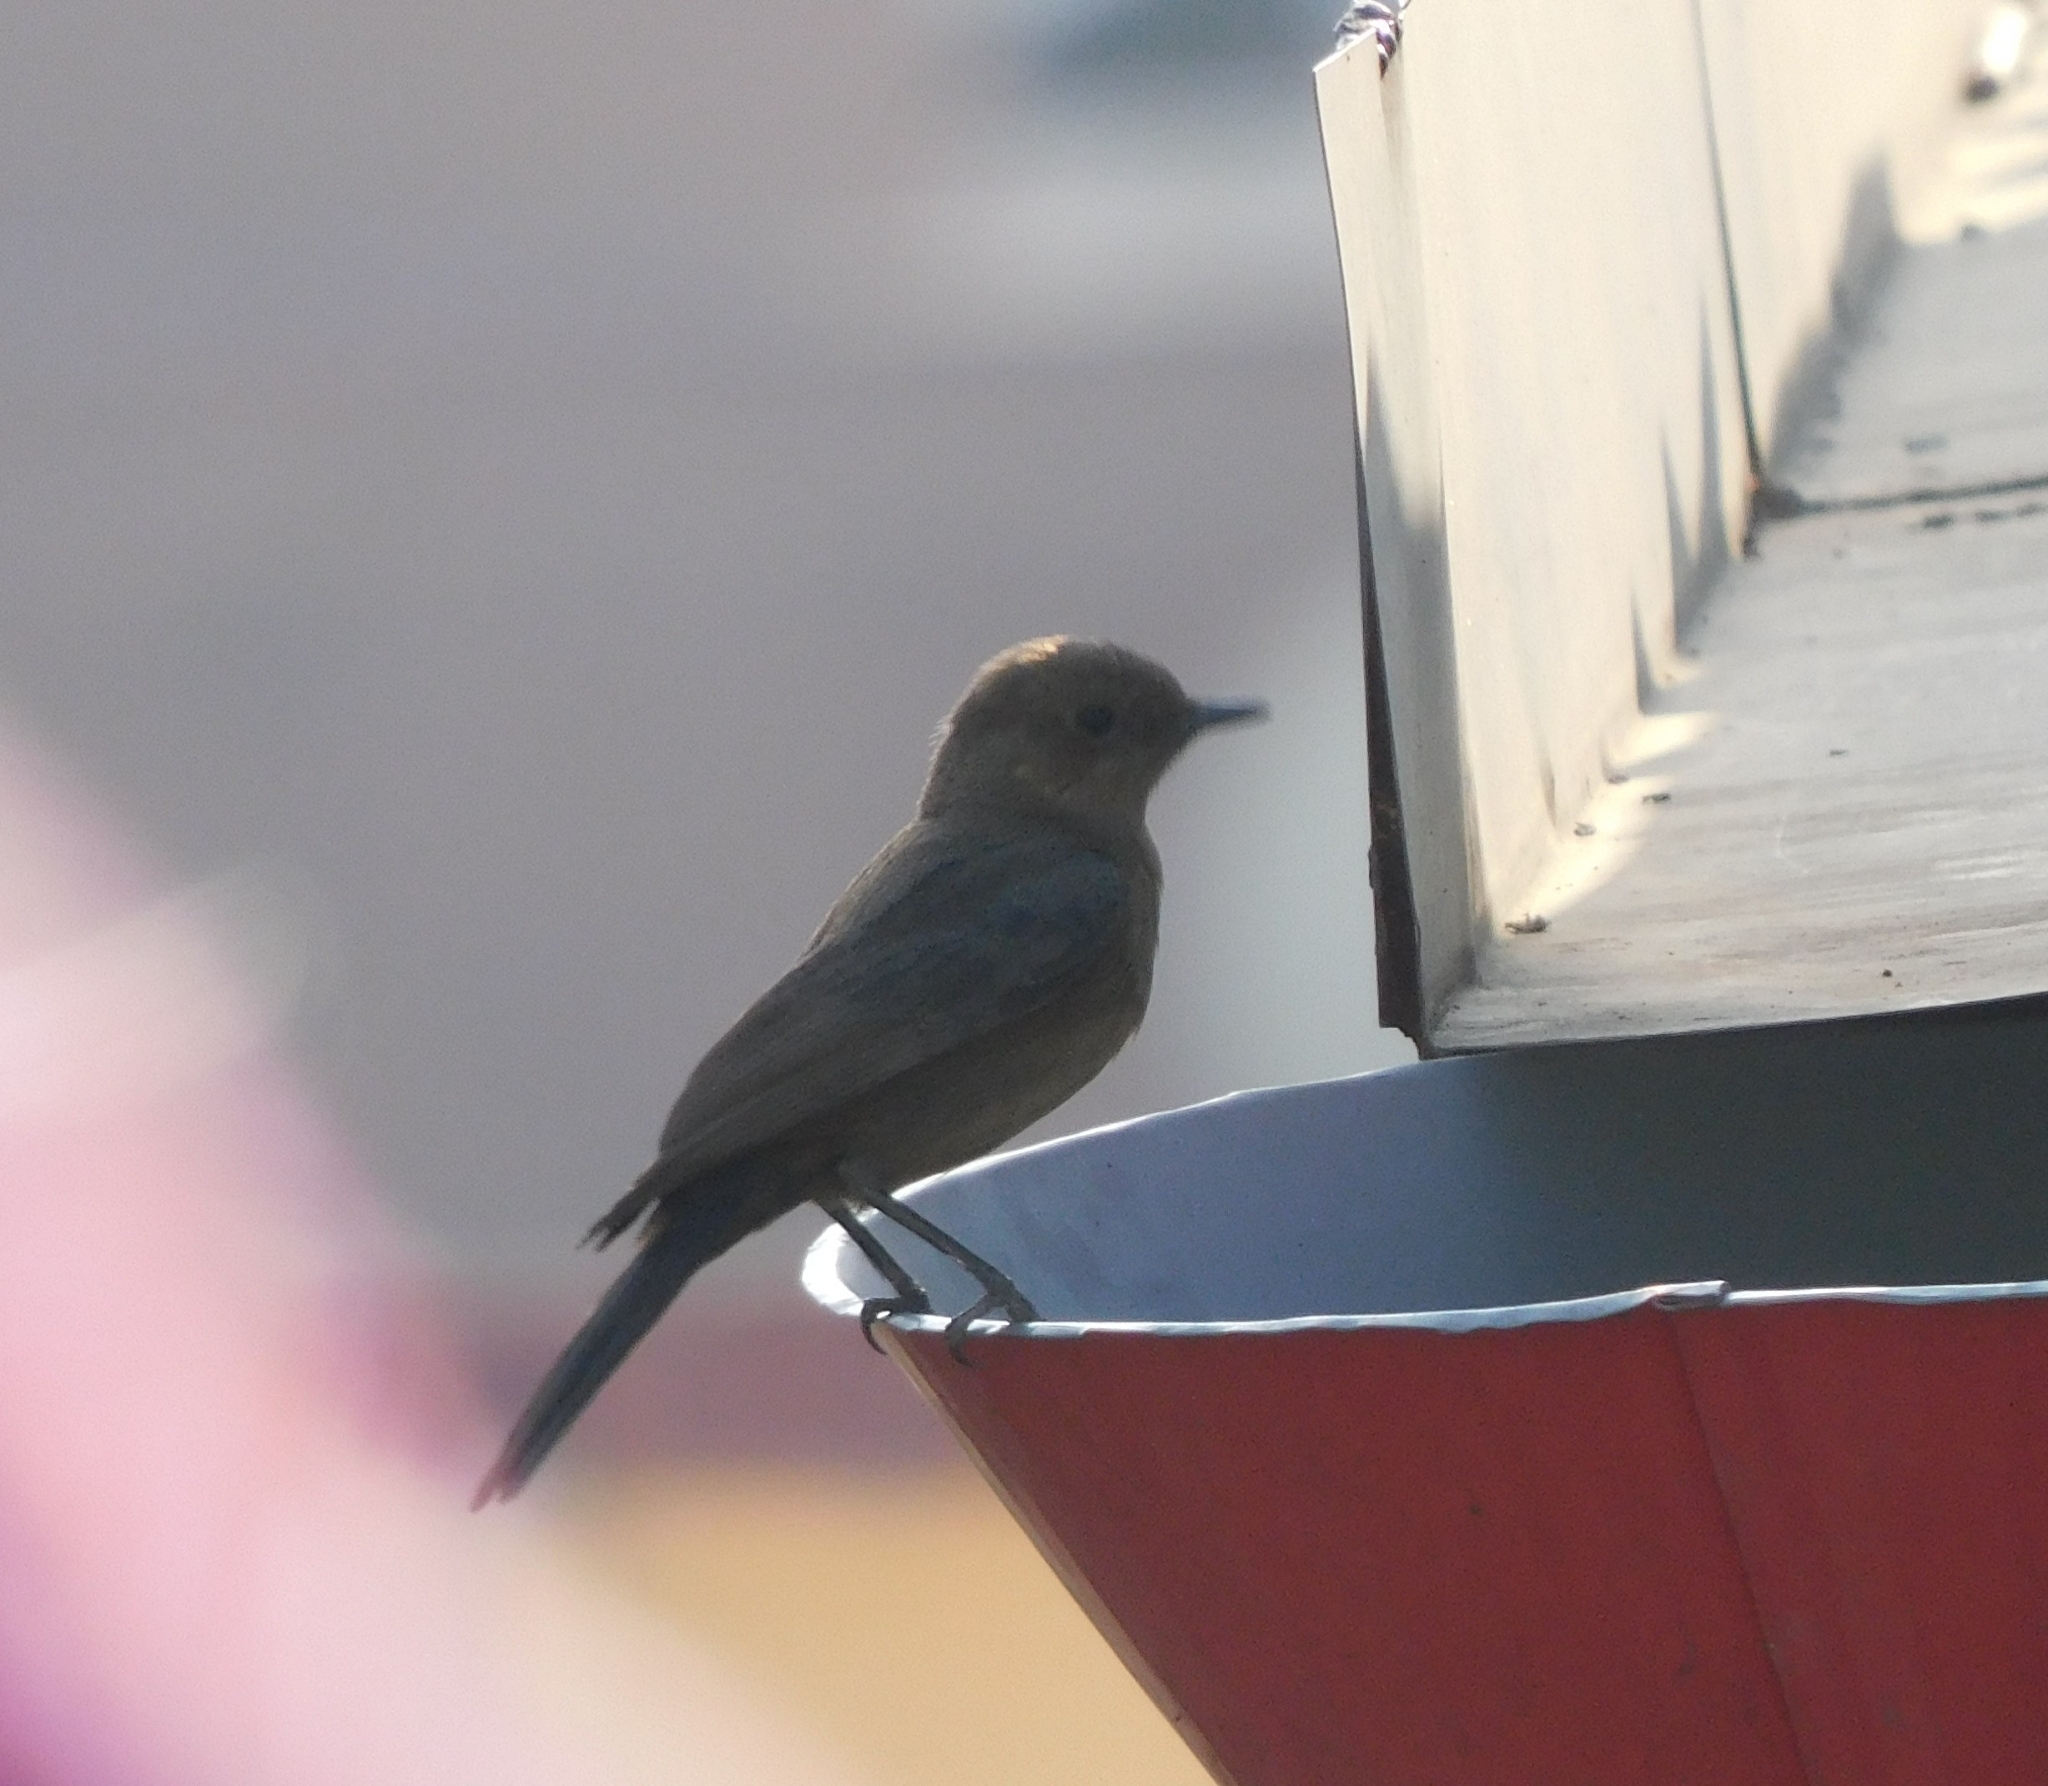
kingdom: Animalia
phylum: Chordata
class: Aves
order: Passeriformes
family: Muscicapidae
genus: Oenanthe
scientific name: Oenanthe fusca
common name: Brown rock chat
